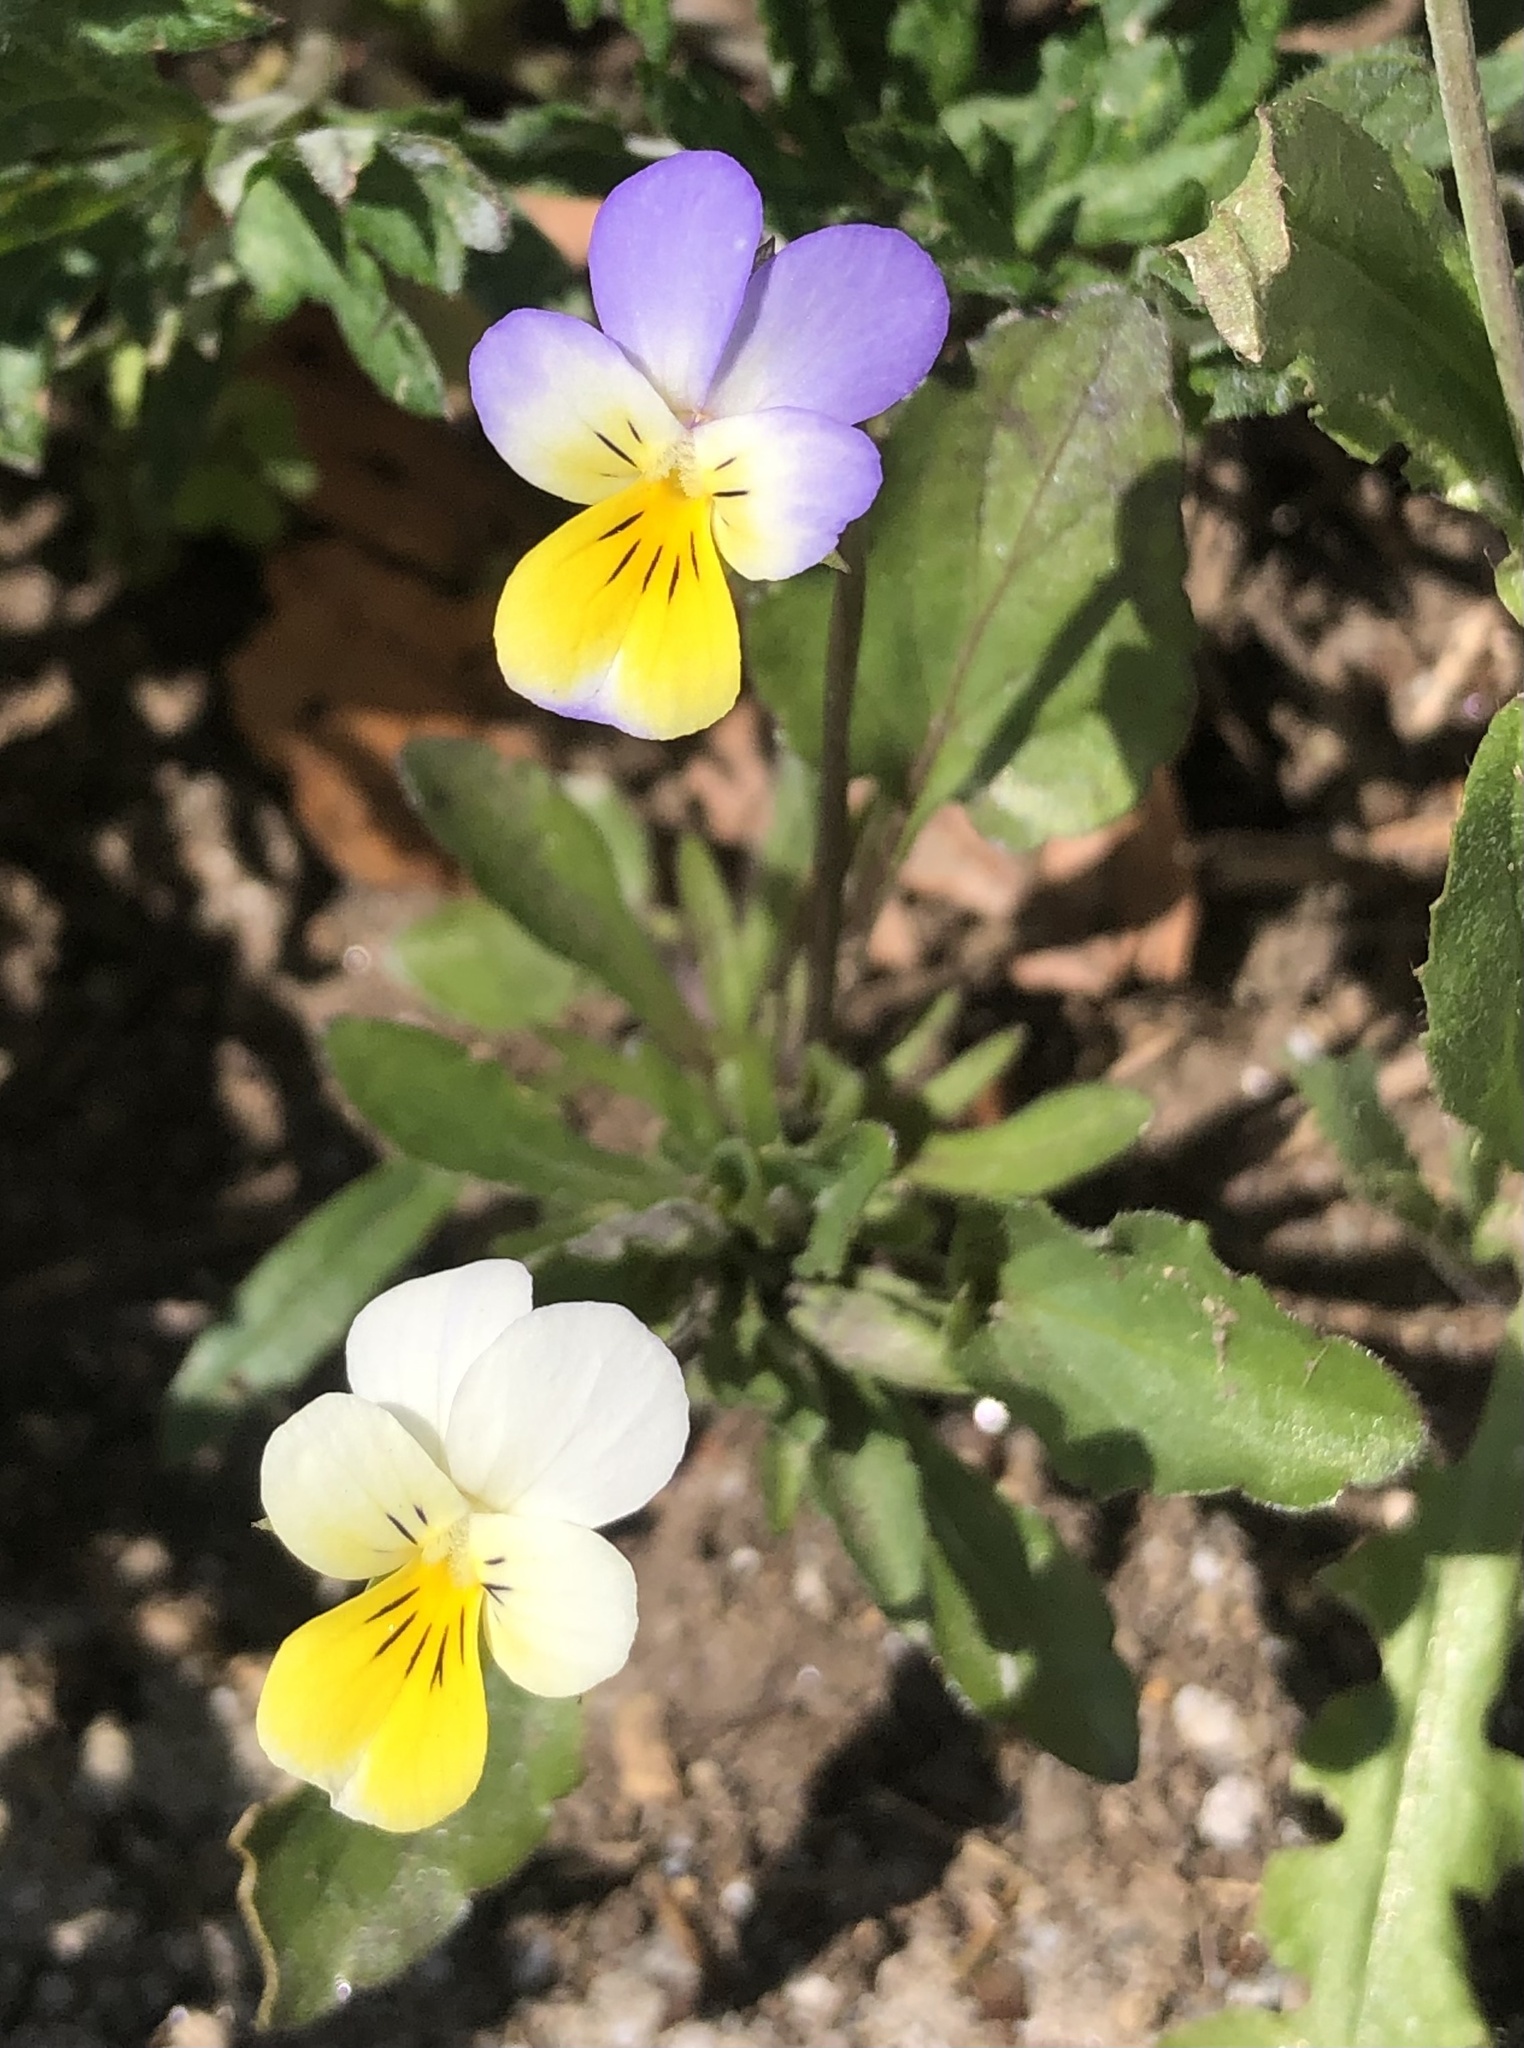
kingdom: Plantae
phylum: Tracheophyta
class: Magnoliopsida
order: Malpighiales
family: Violaceae
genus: Viola
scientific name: Viola tricolor
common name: Pansy
